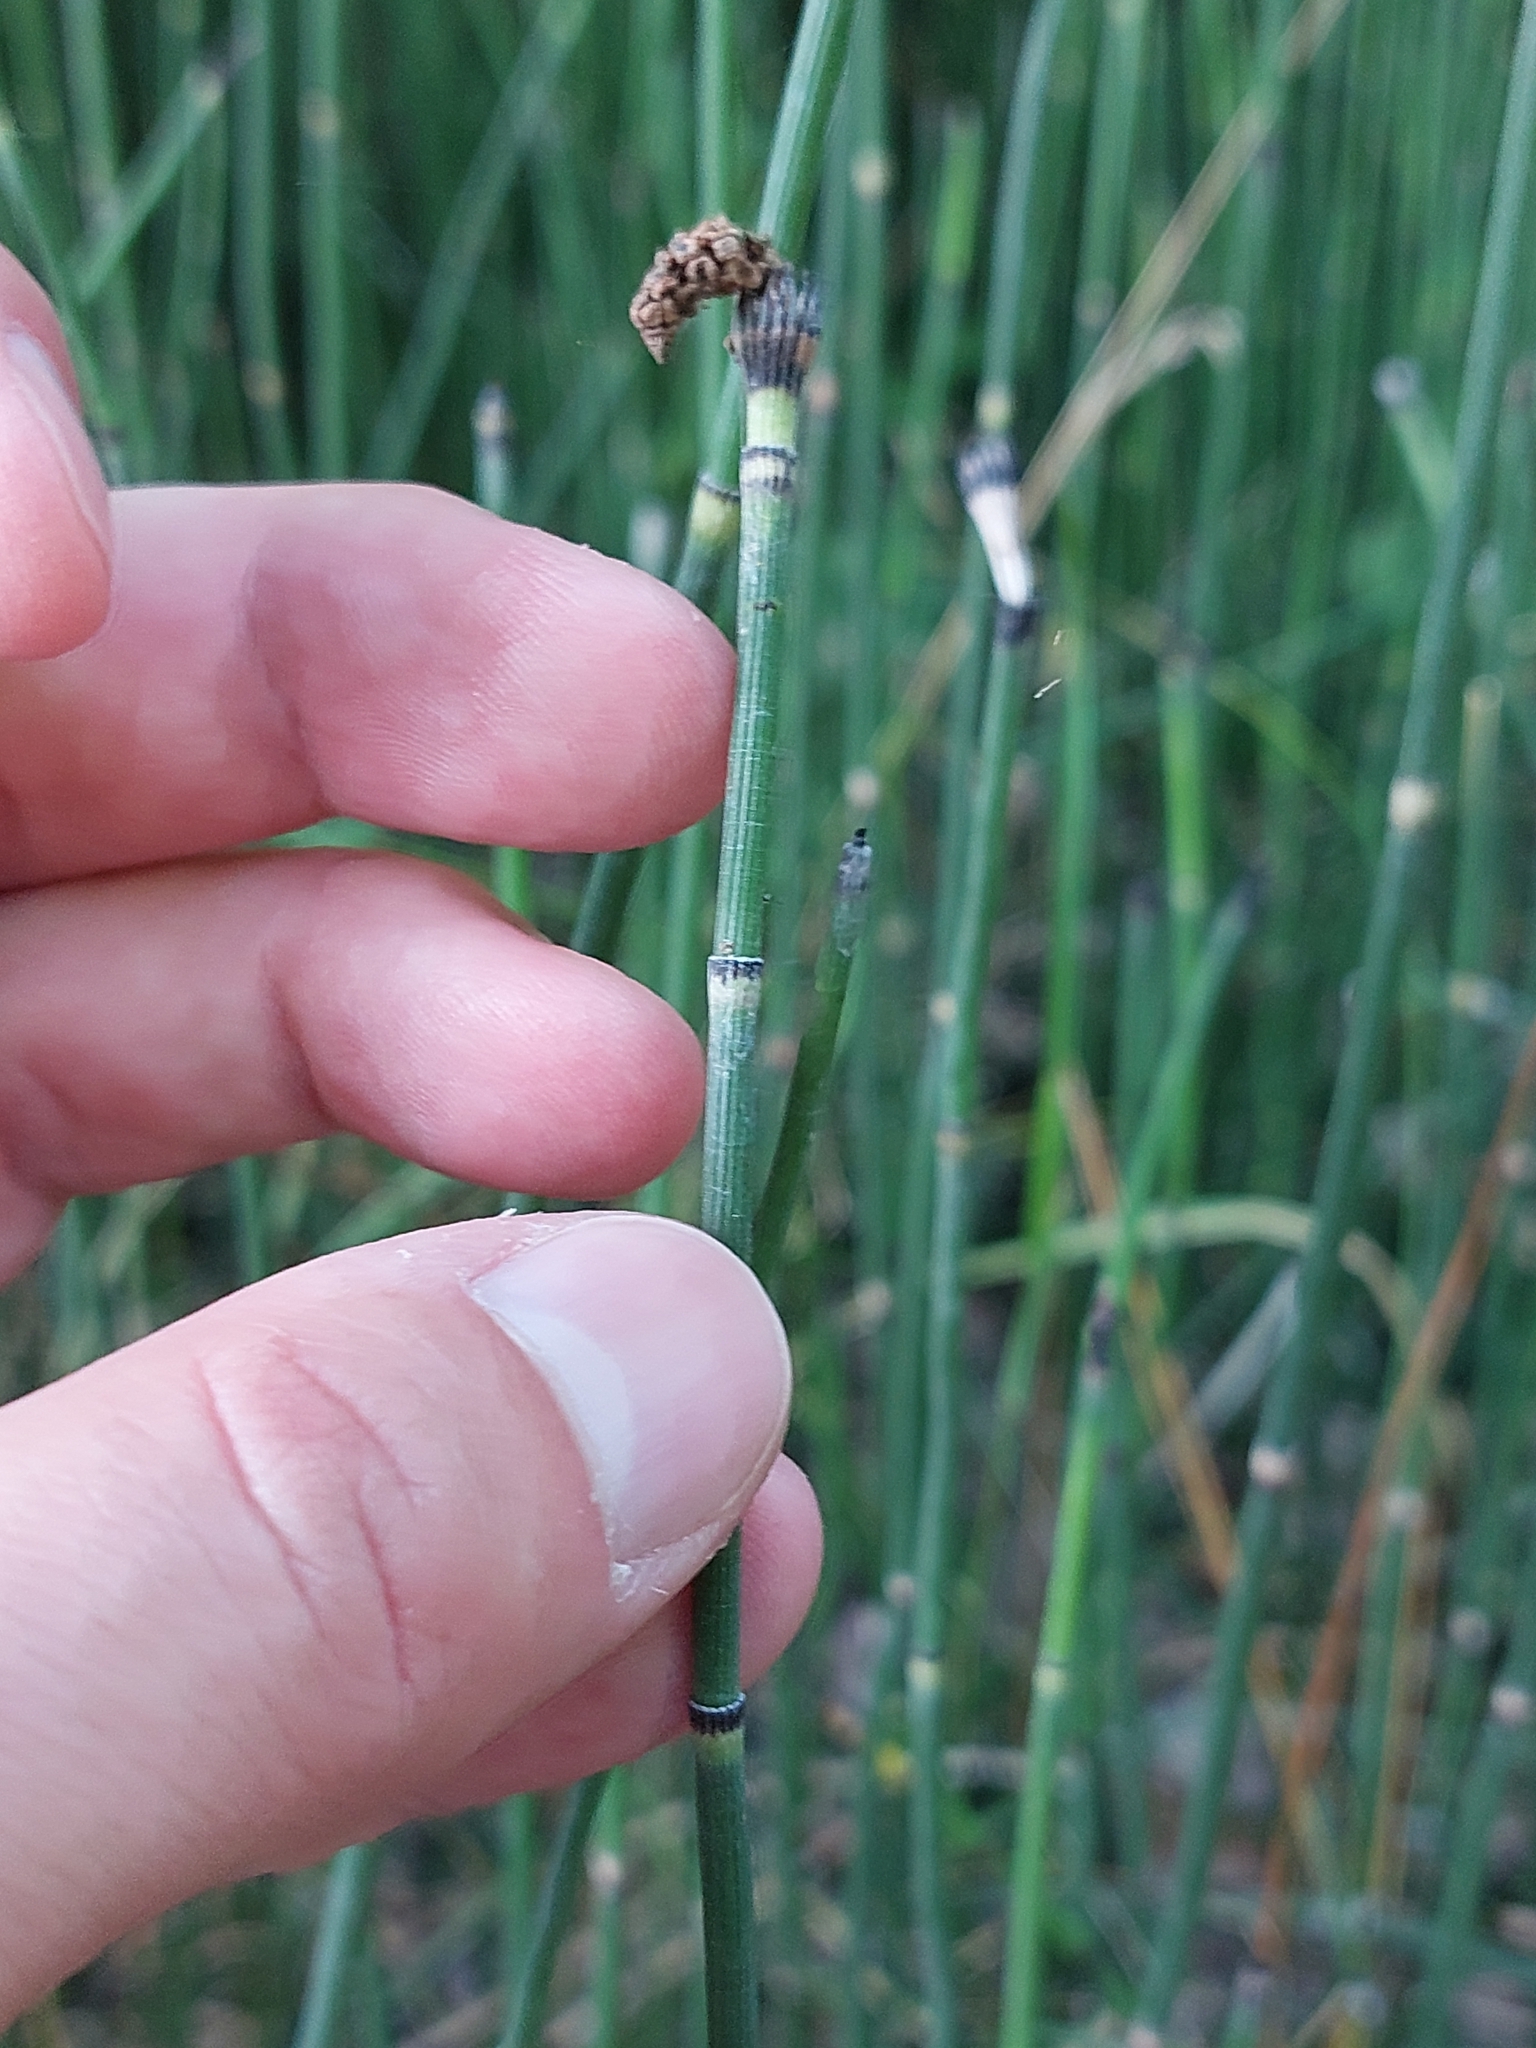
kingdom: Plantae
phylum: Tracheophyta
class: Polypodiopsida
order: Equisetales
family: Equisetaceae
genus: Equisetum
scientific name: Equisetum hyemale
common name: Rough horsetail
